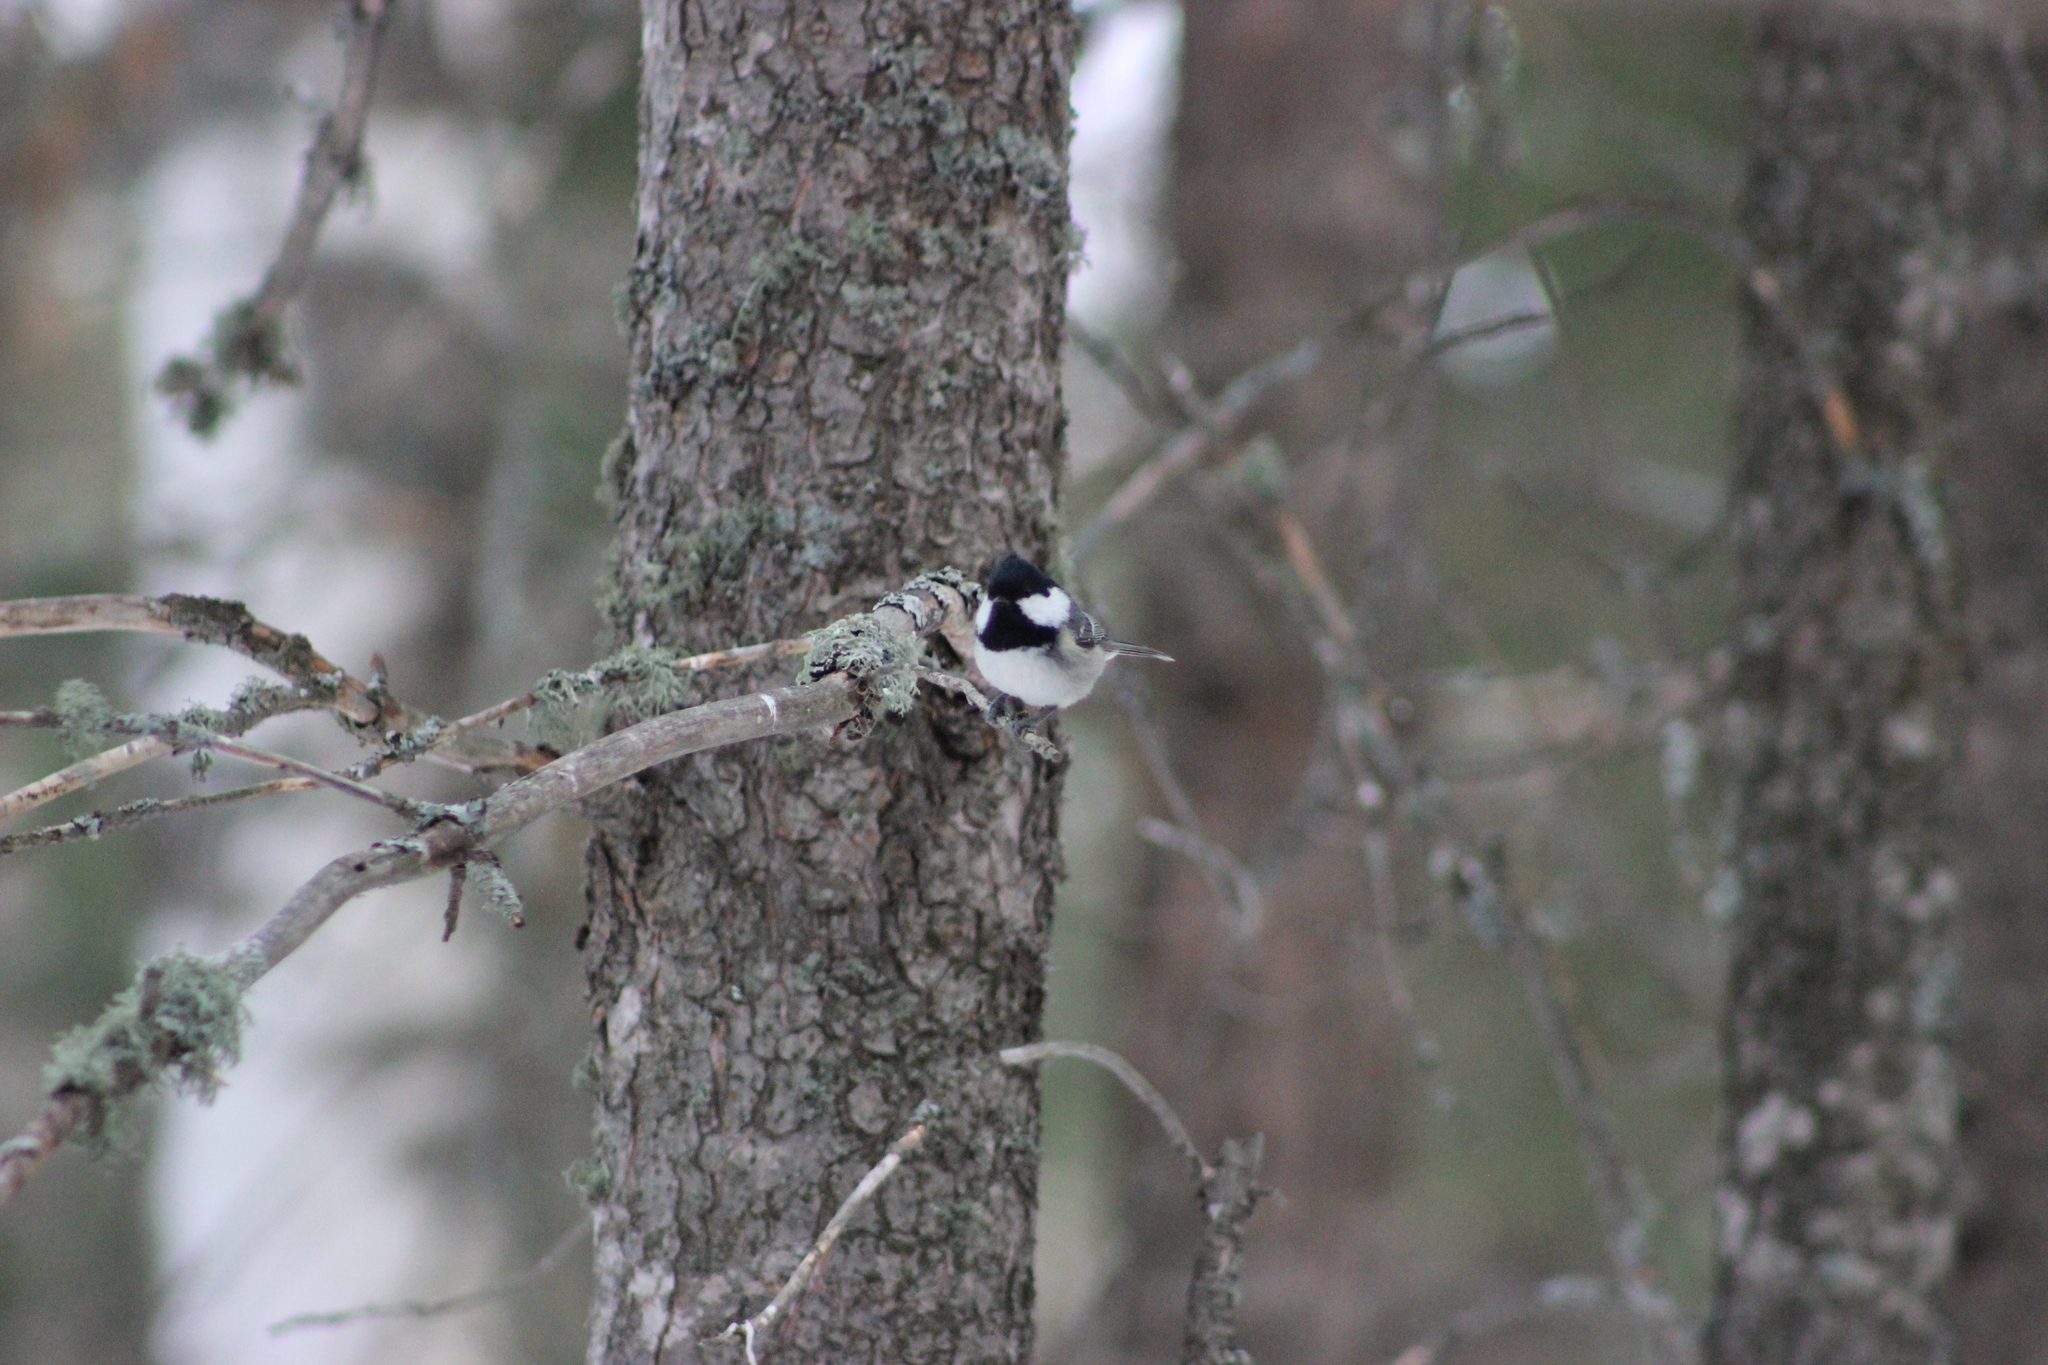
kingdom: Animalia
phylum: Chordata
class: Aves
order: Passeriformes
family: Paridae
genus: Periparus
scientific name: Periparus ater
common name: Coal tit
